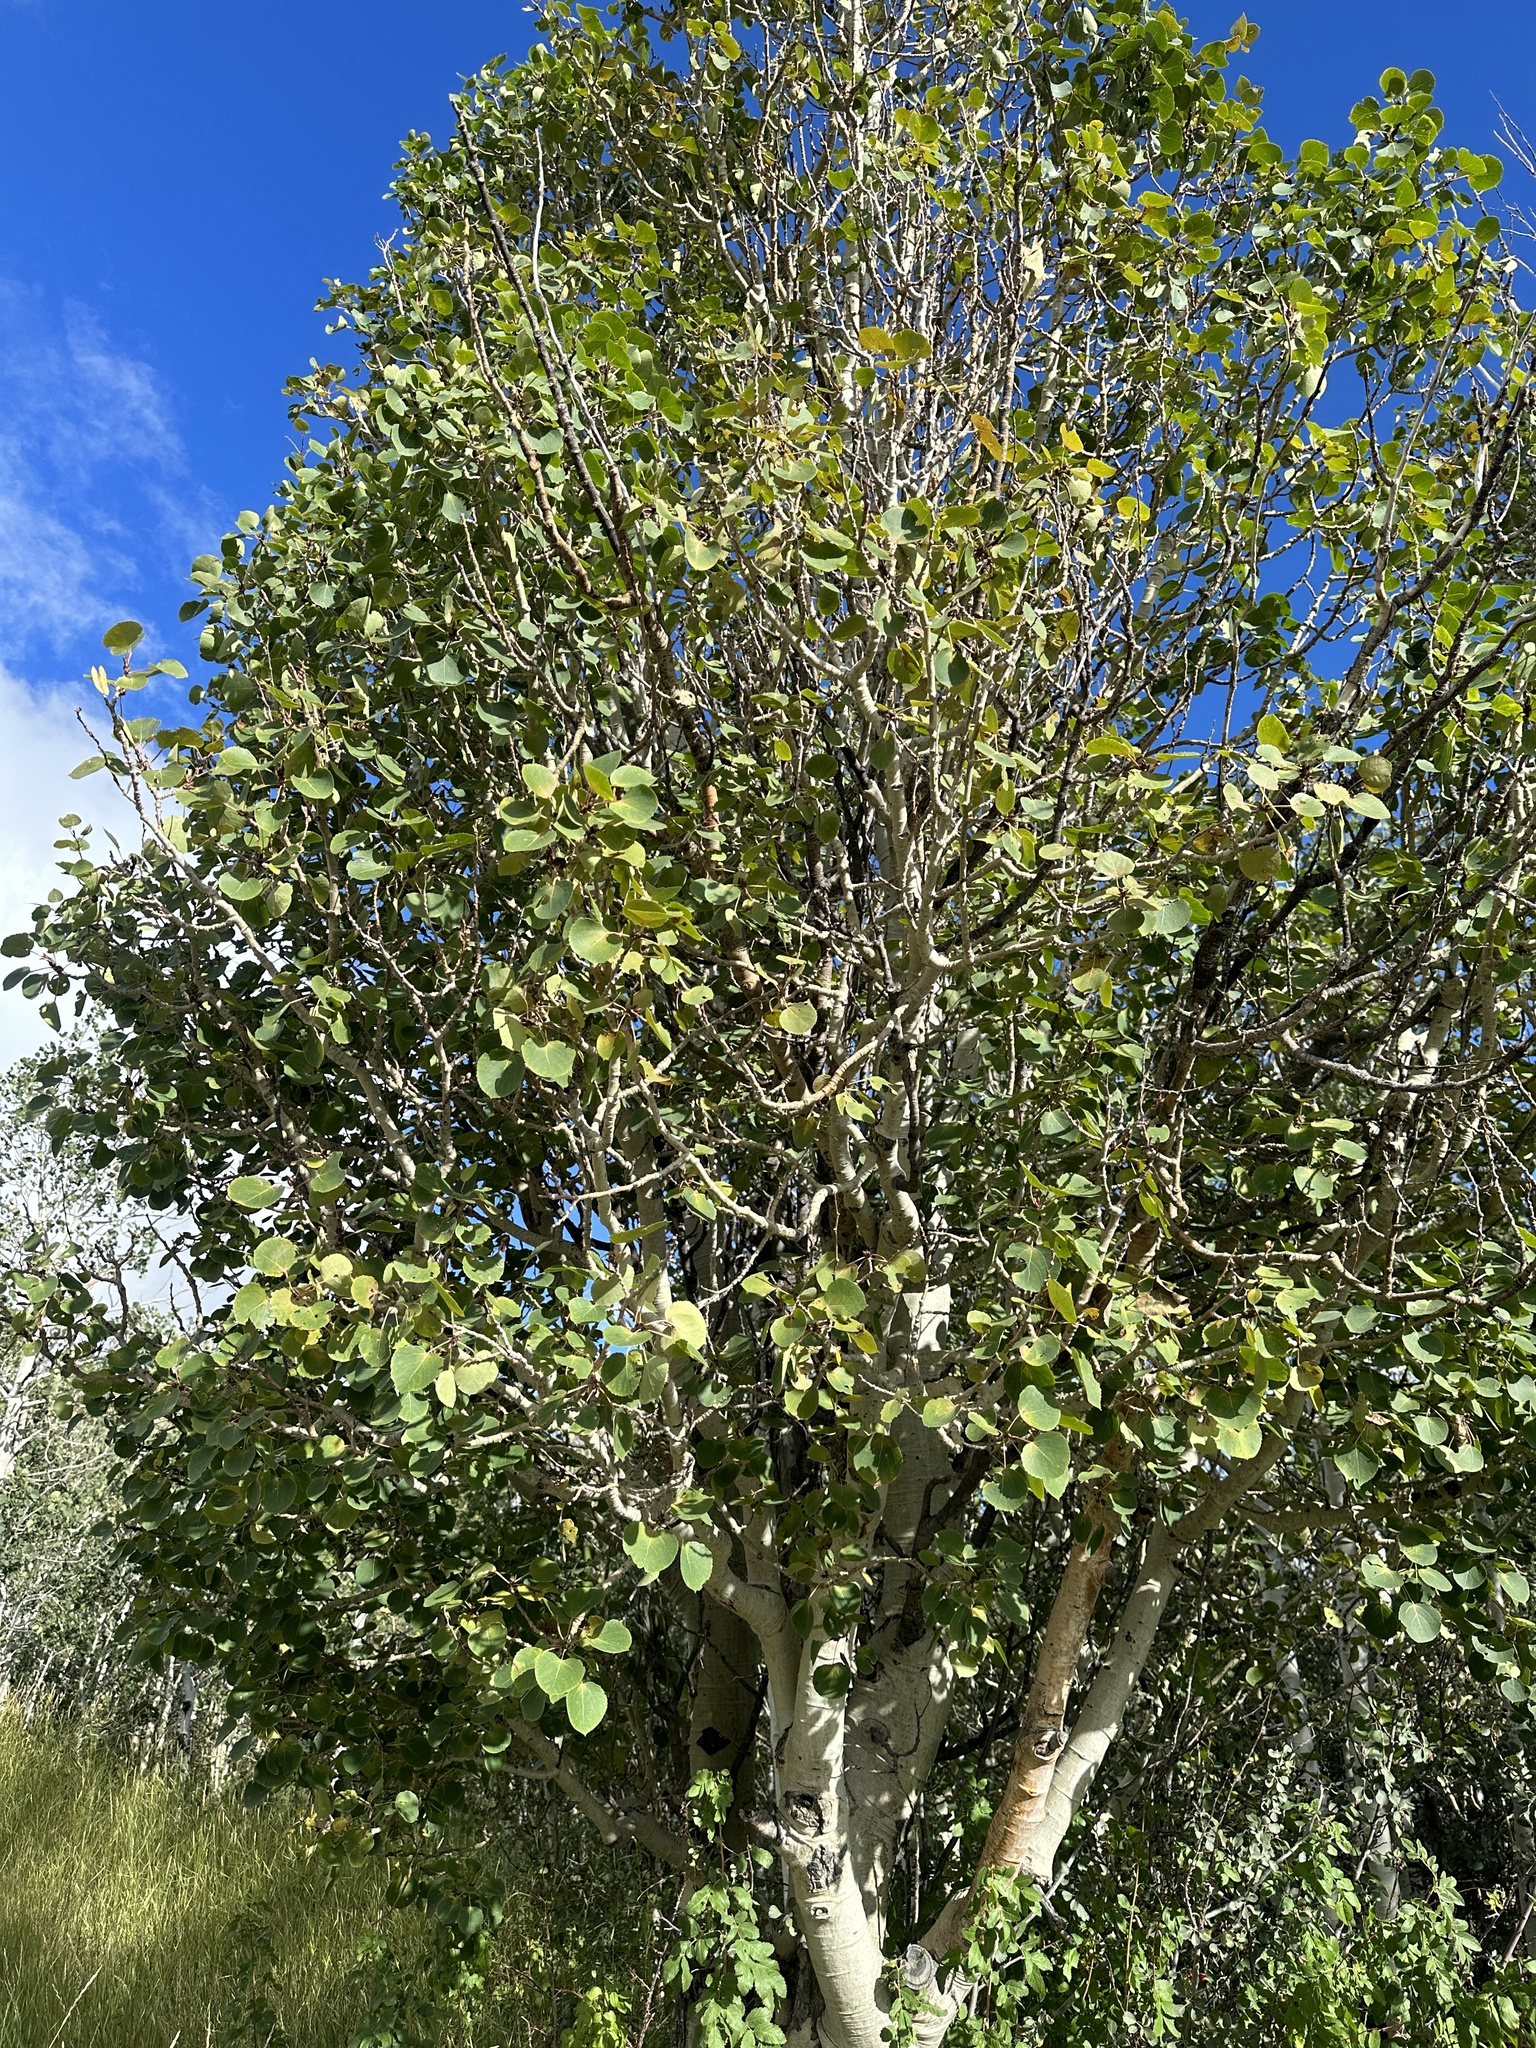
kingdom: Plantae
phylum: Tracheophyta
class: Magnoliopsida
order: Malpighiales
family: Salicaceae
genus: Populus
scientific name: Populus tremuloides
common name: Quaking aspen
